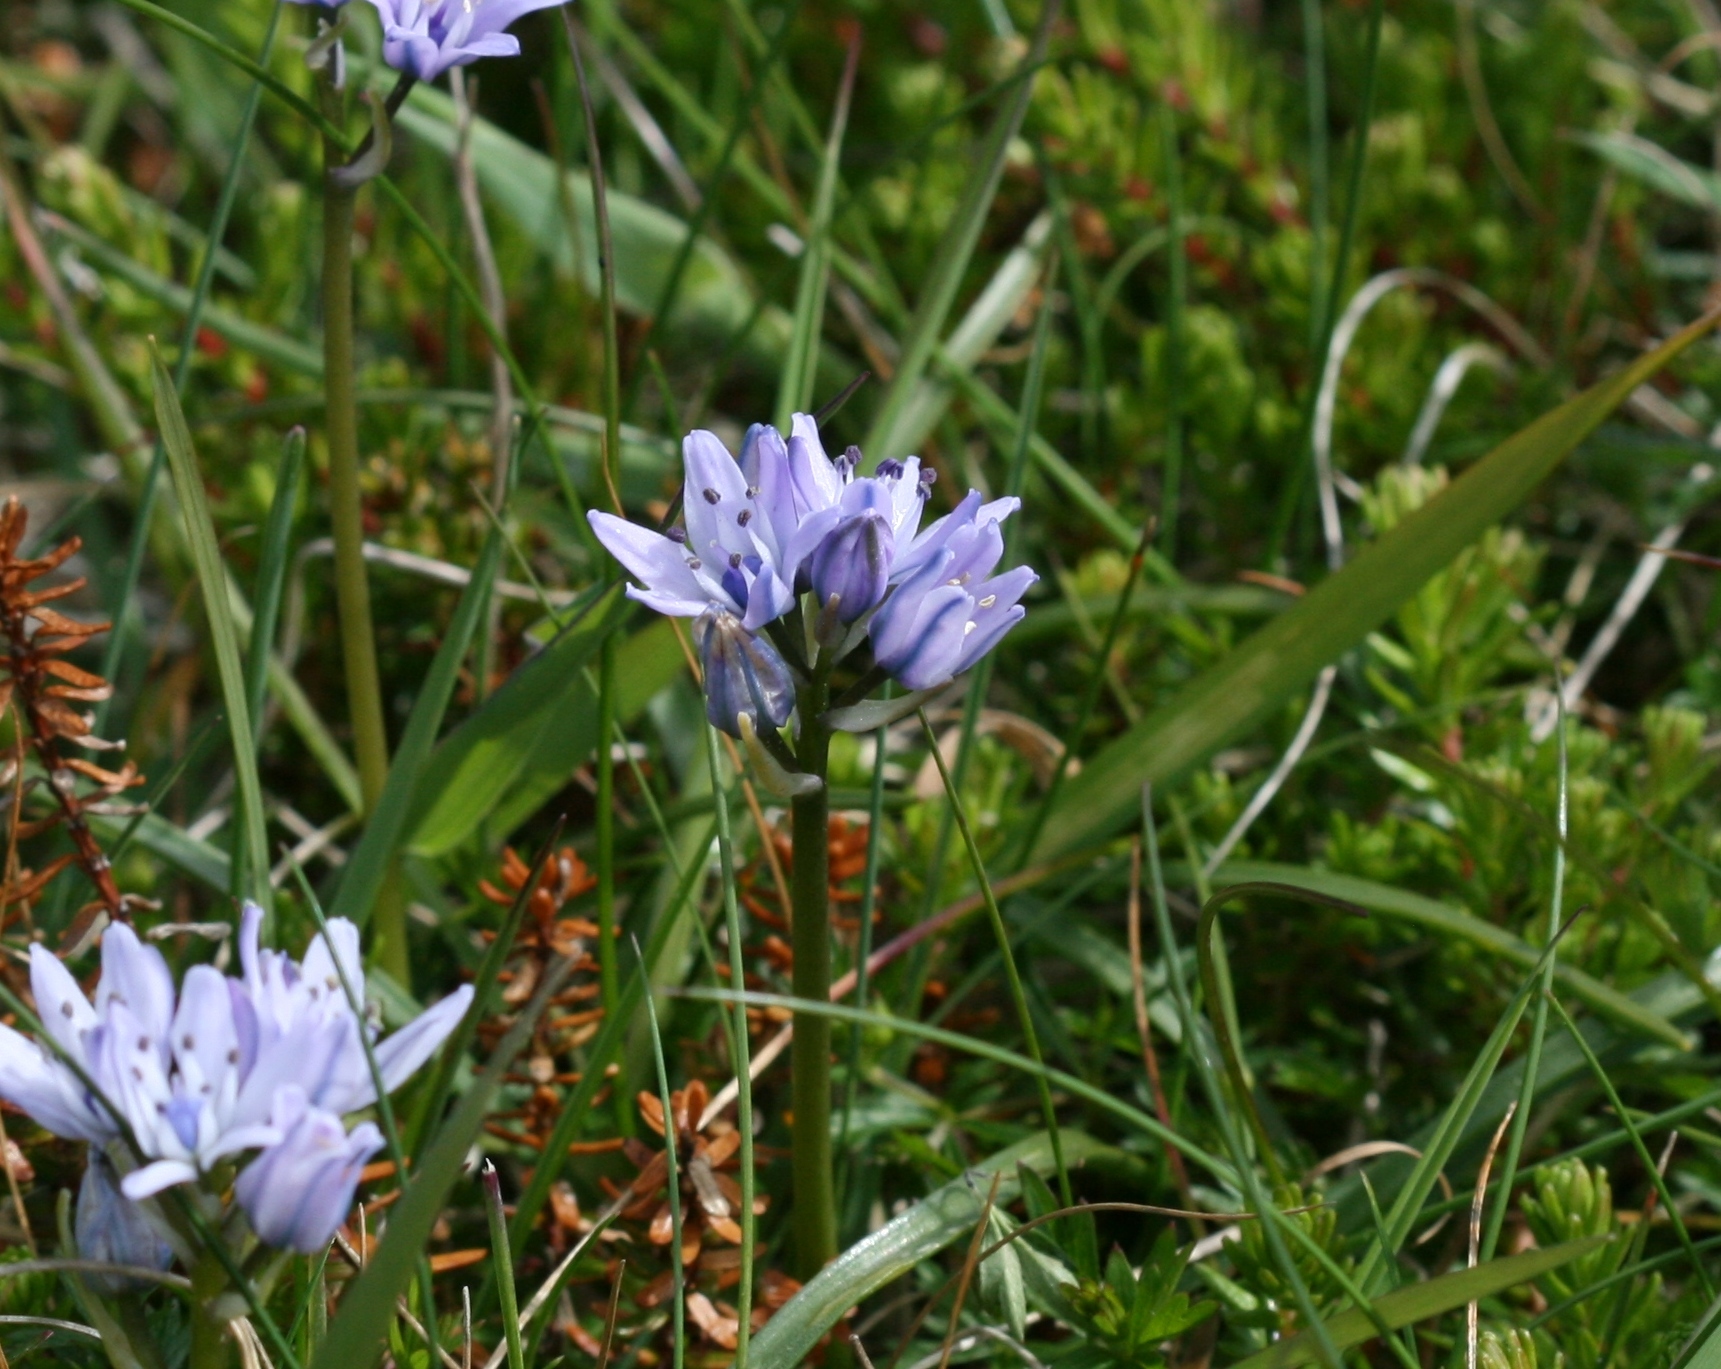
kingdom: Plantae
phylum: Tracheophyta
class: Liliopsida
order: Asparagales
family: Asparagaceae
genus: Scilla
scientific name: Scilla verna
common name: Spring squill
